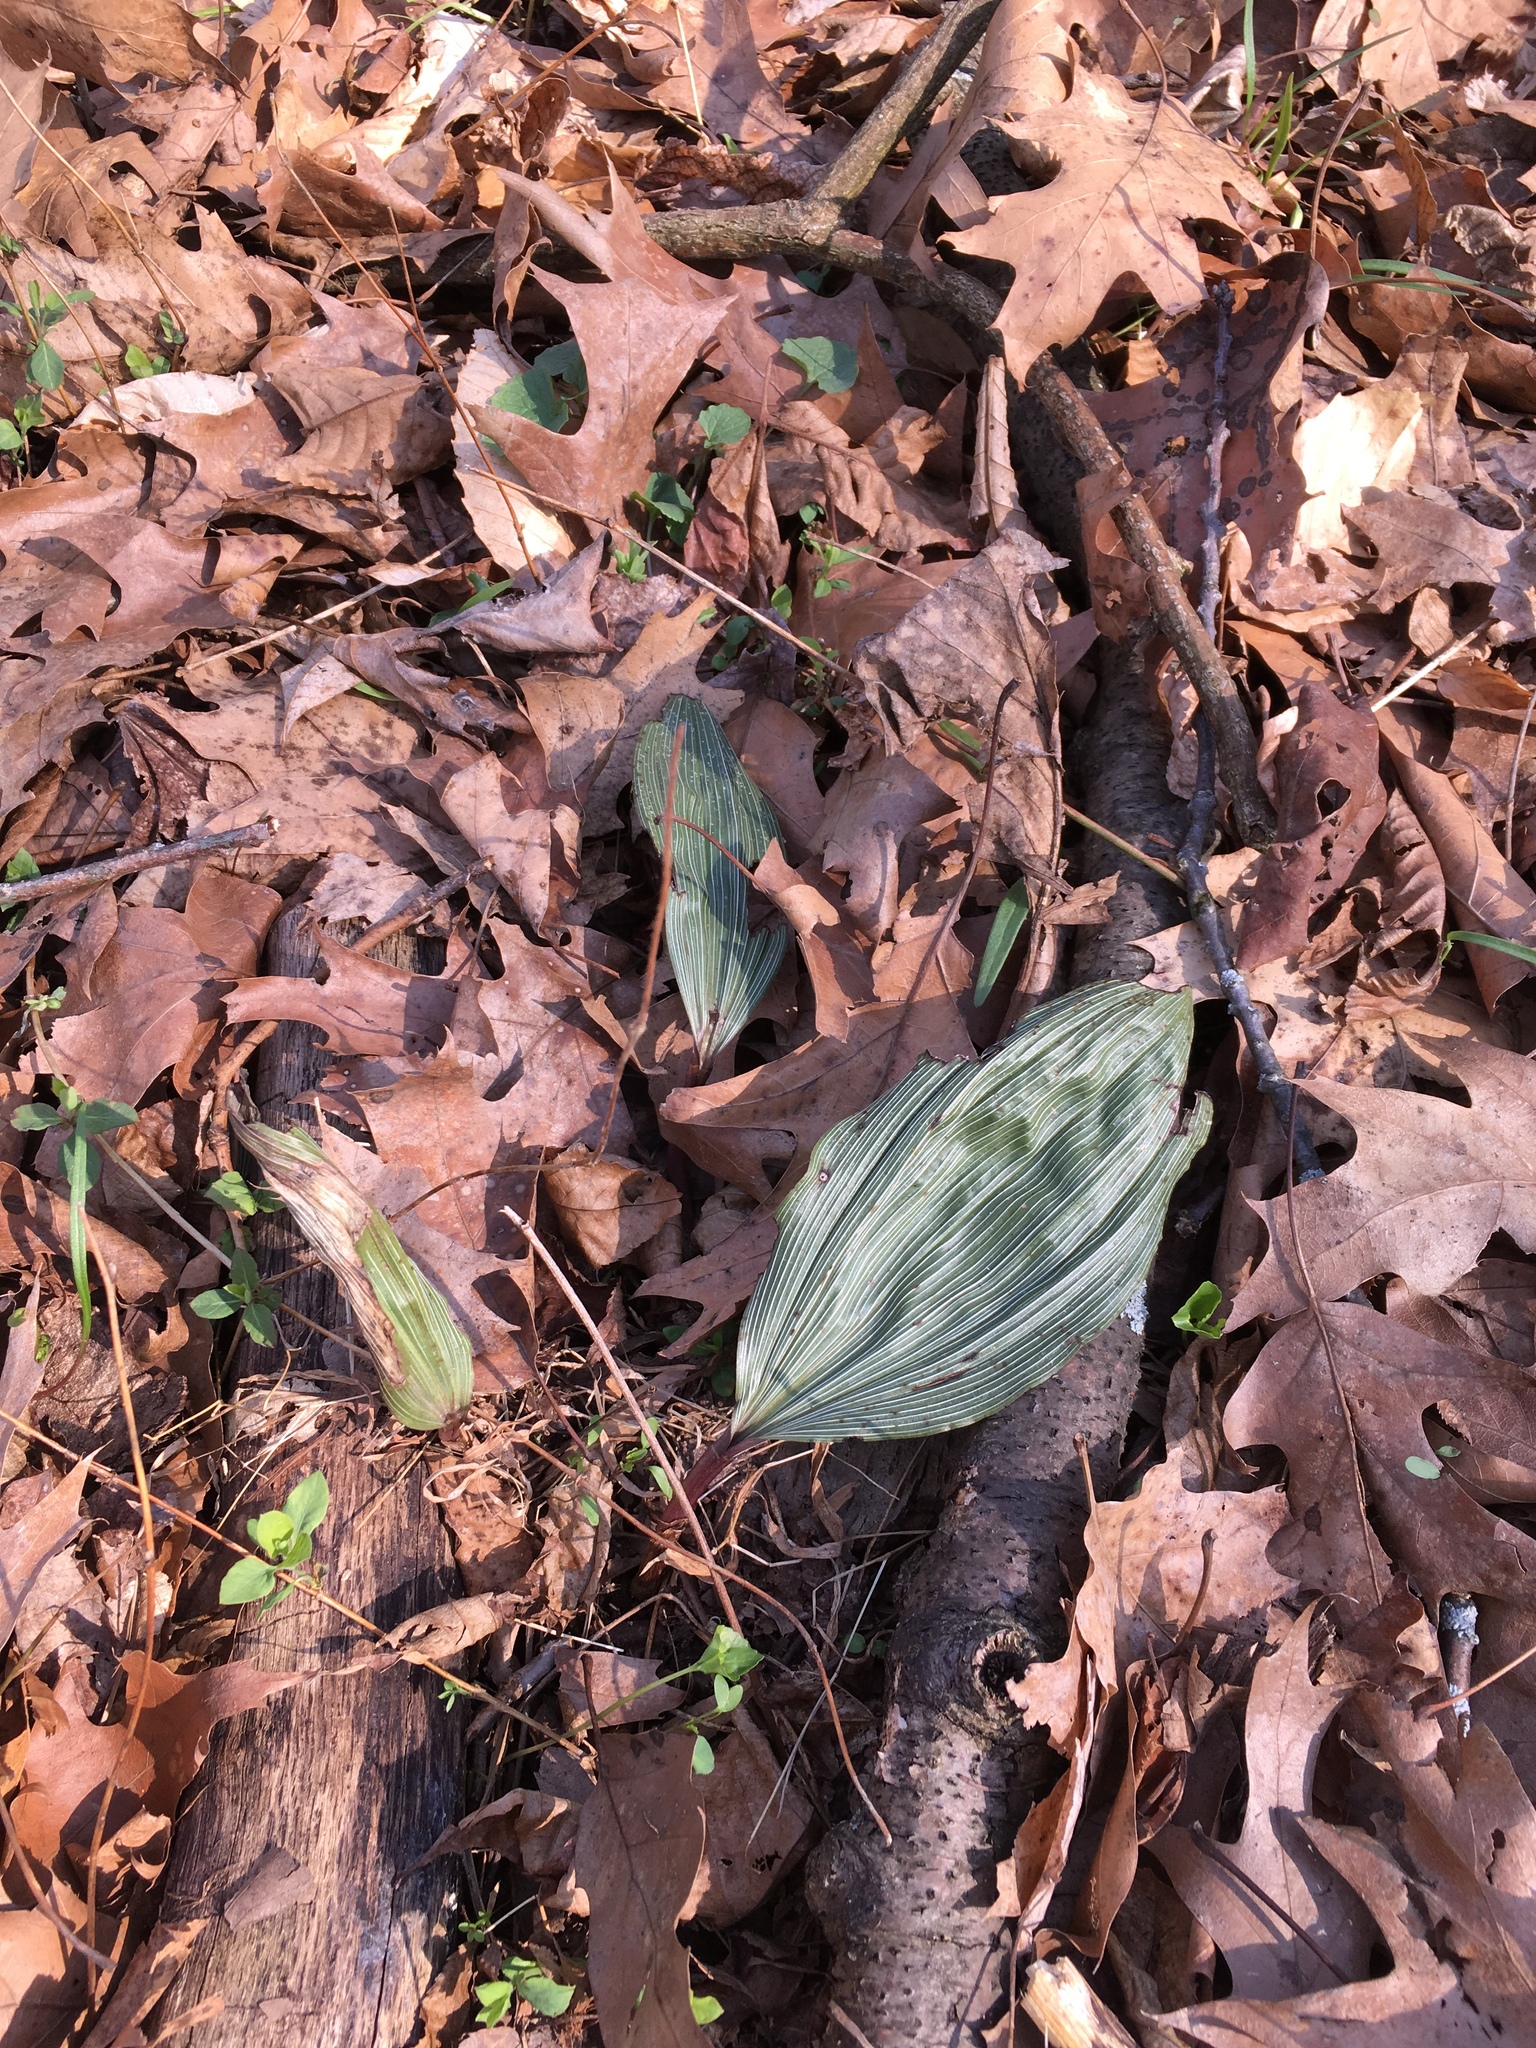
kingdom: Plantae
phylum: Tracheophyta
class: Liliopsida
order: Asparagales
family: Orchidaceae
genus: Aplectrum
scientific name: Aplectrum hyemale
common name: Adam-and-eve
